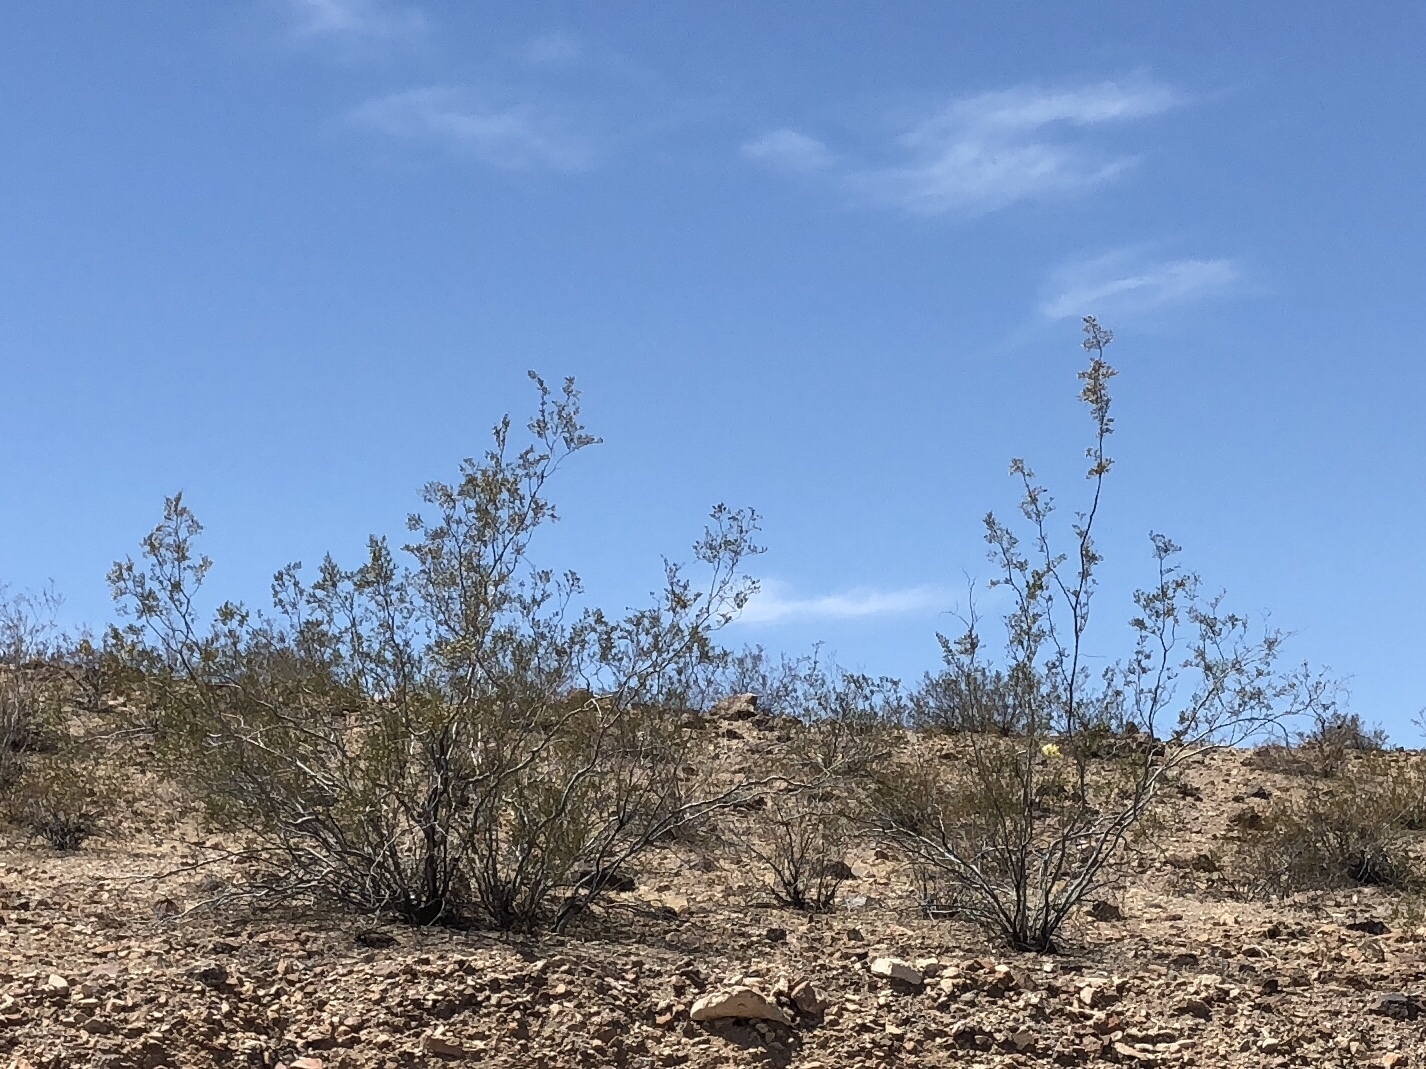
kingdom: Plantae
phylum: Tracheophyta
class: Magnoliopsida
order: Zygophyllales
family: Zygophyllaceae
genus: Larrea
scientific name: Larrea tridentata
